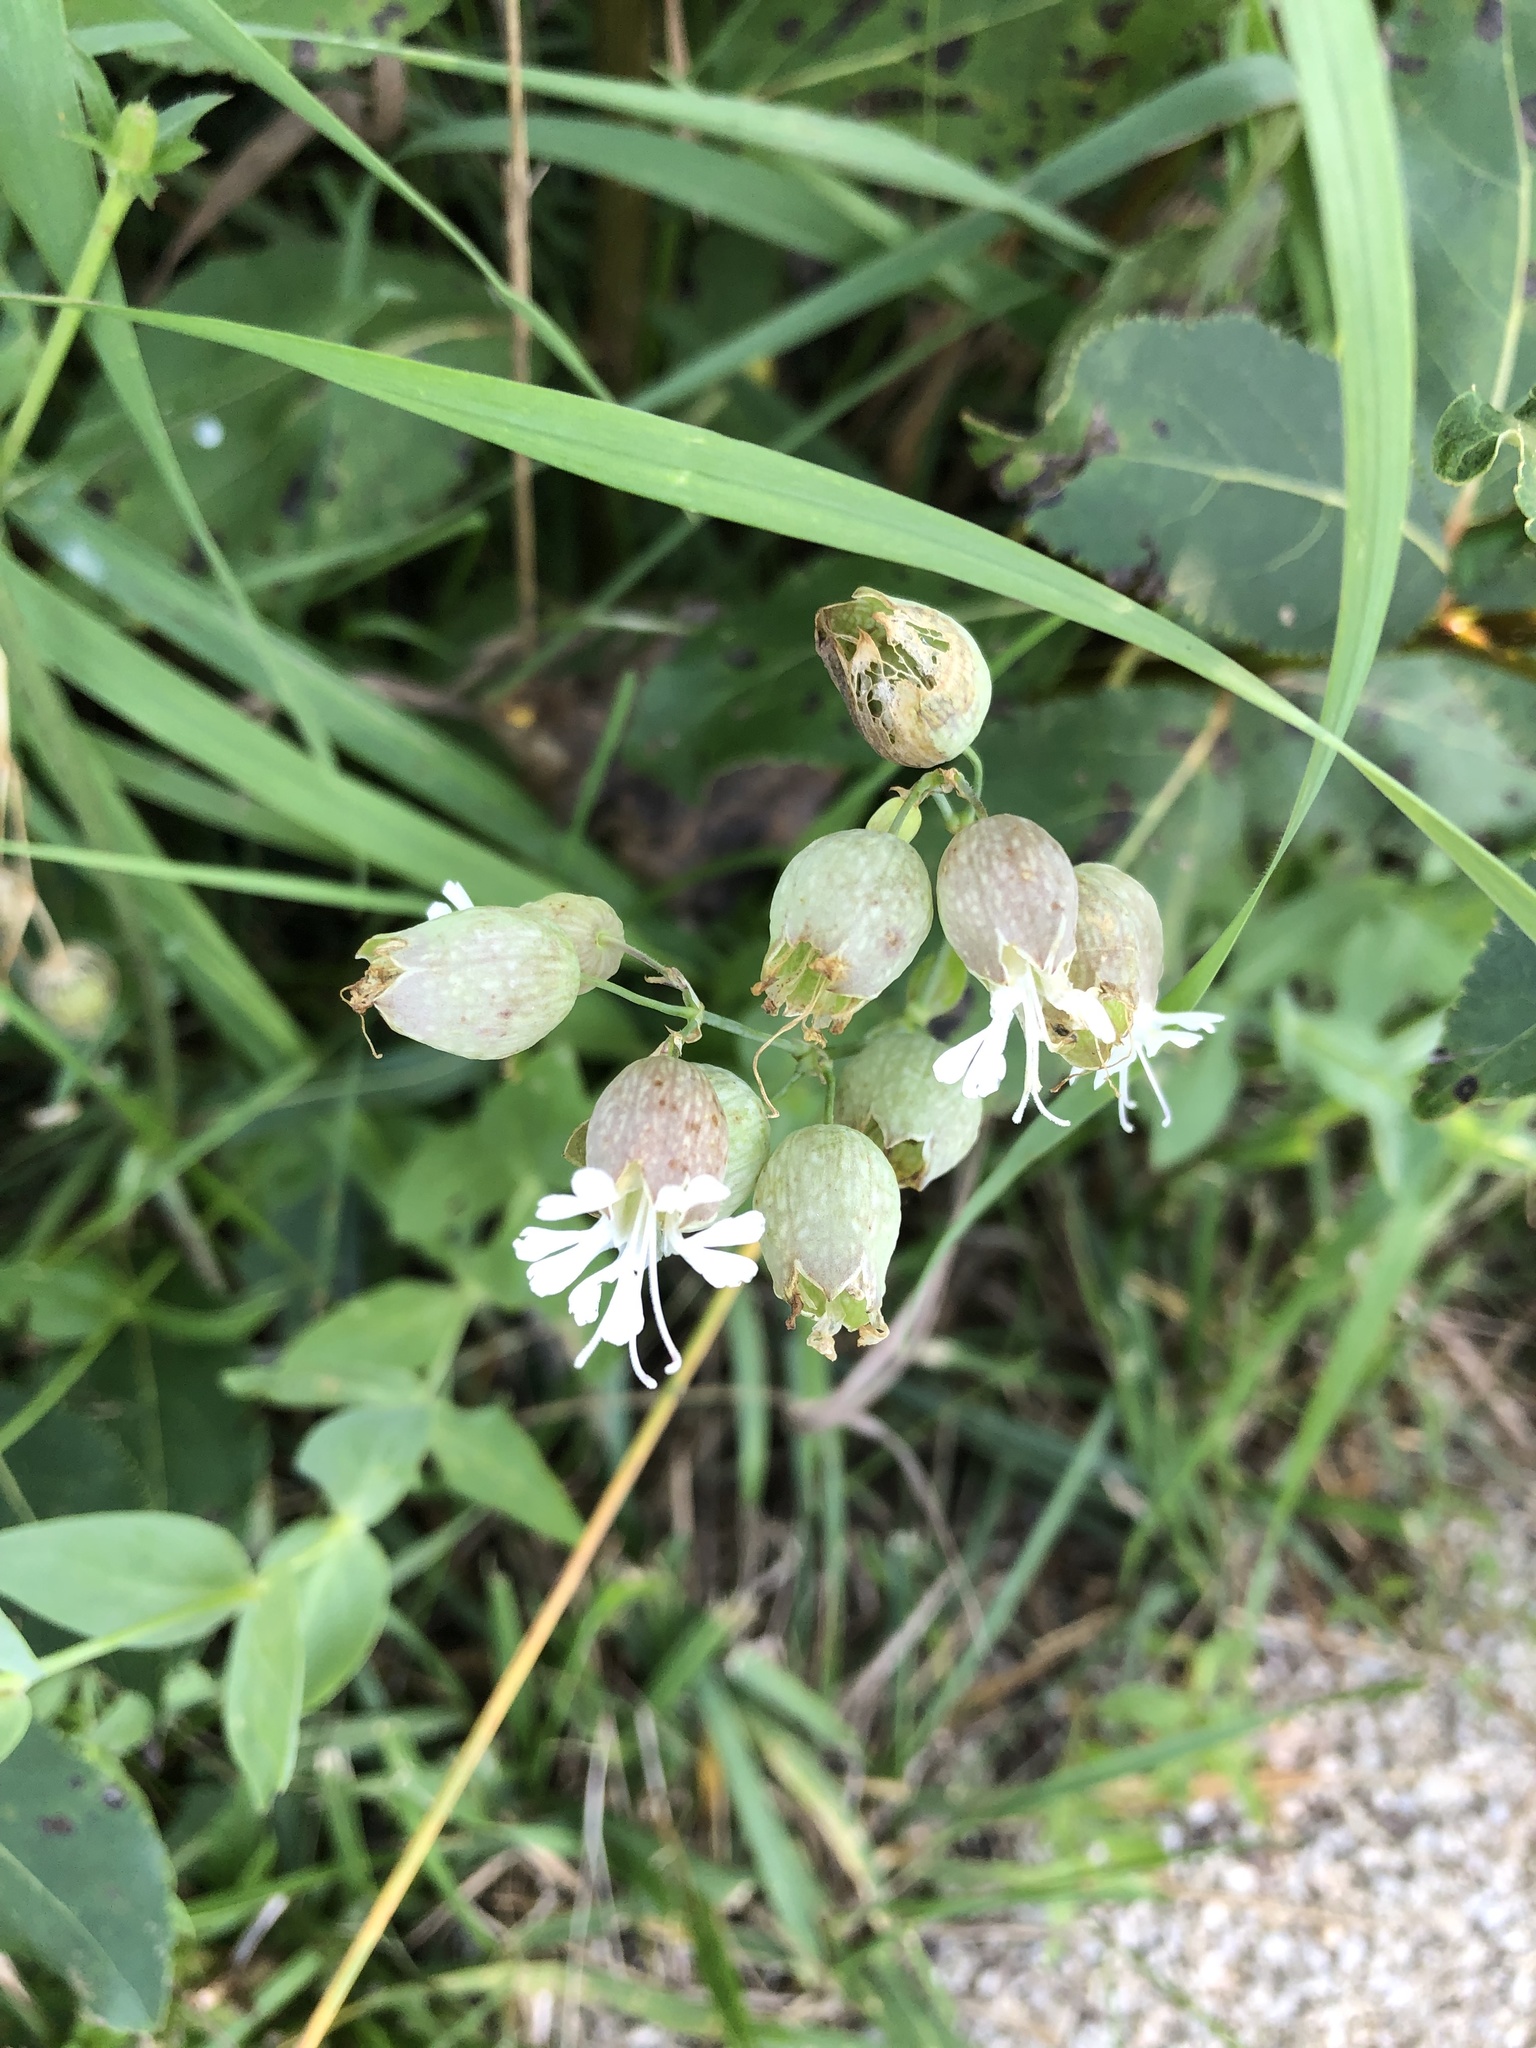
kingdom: Plantae
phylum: Tracheophyta
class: Magnoliopsida
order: Caryophyllales
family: Caryophyllaceae
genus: Silene
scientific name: Silene vulgaris
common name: Bladder campion
